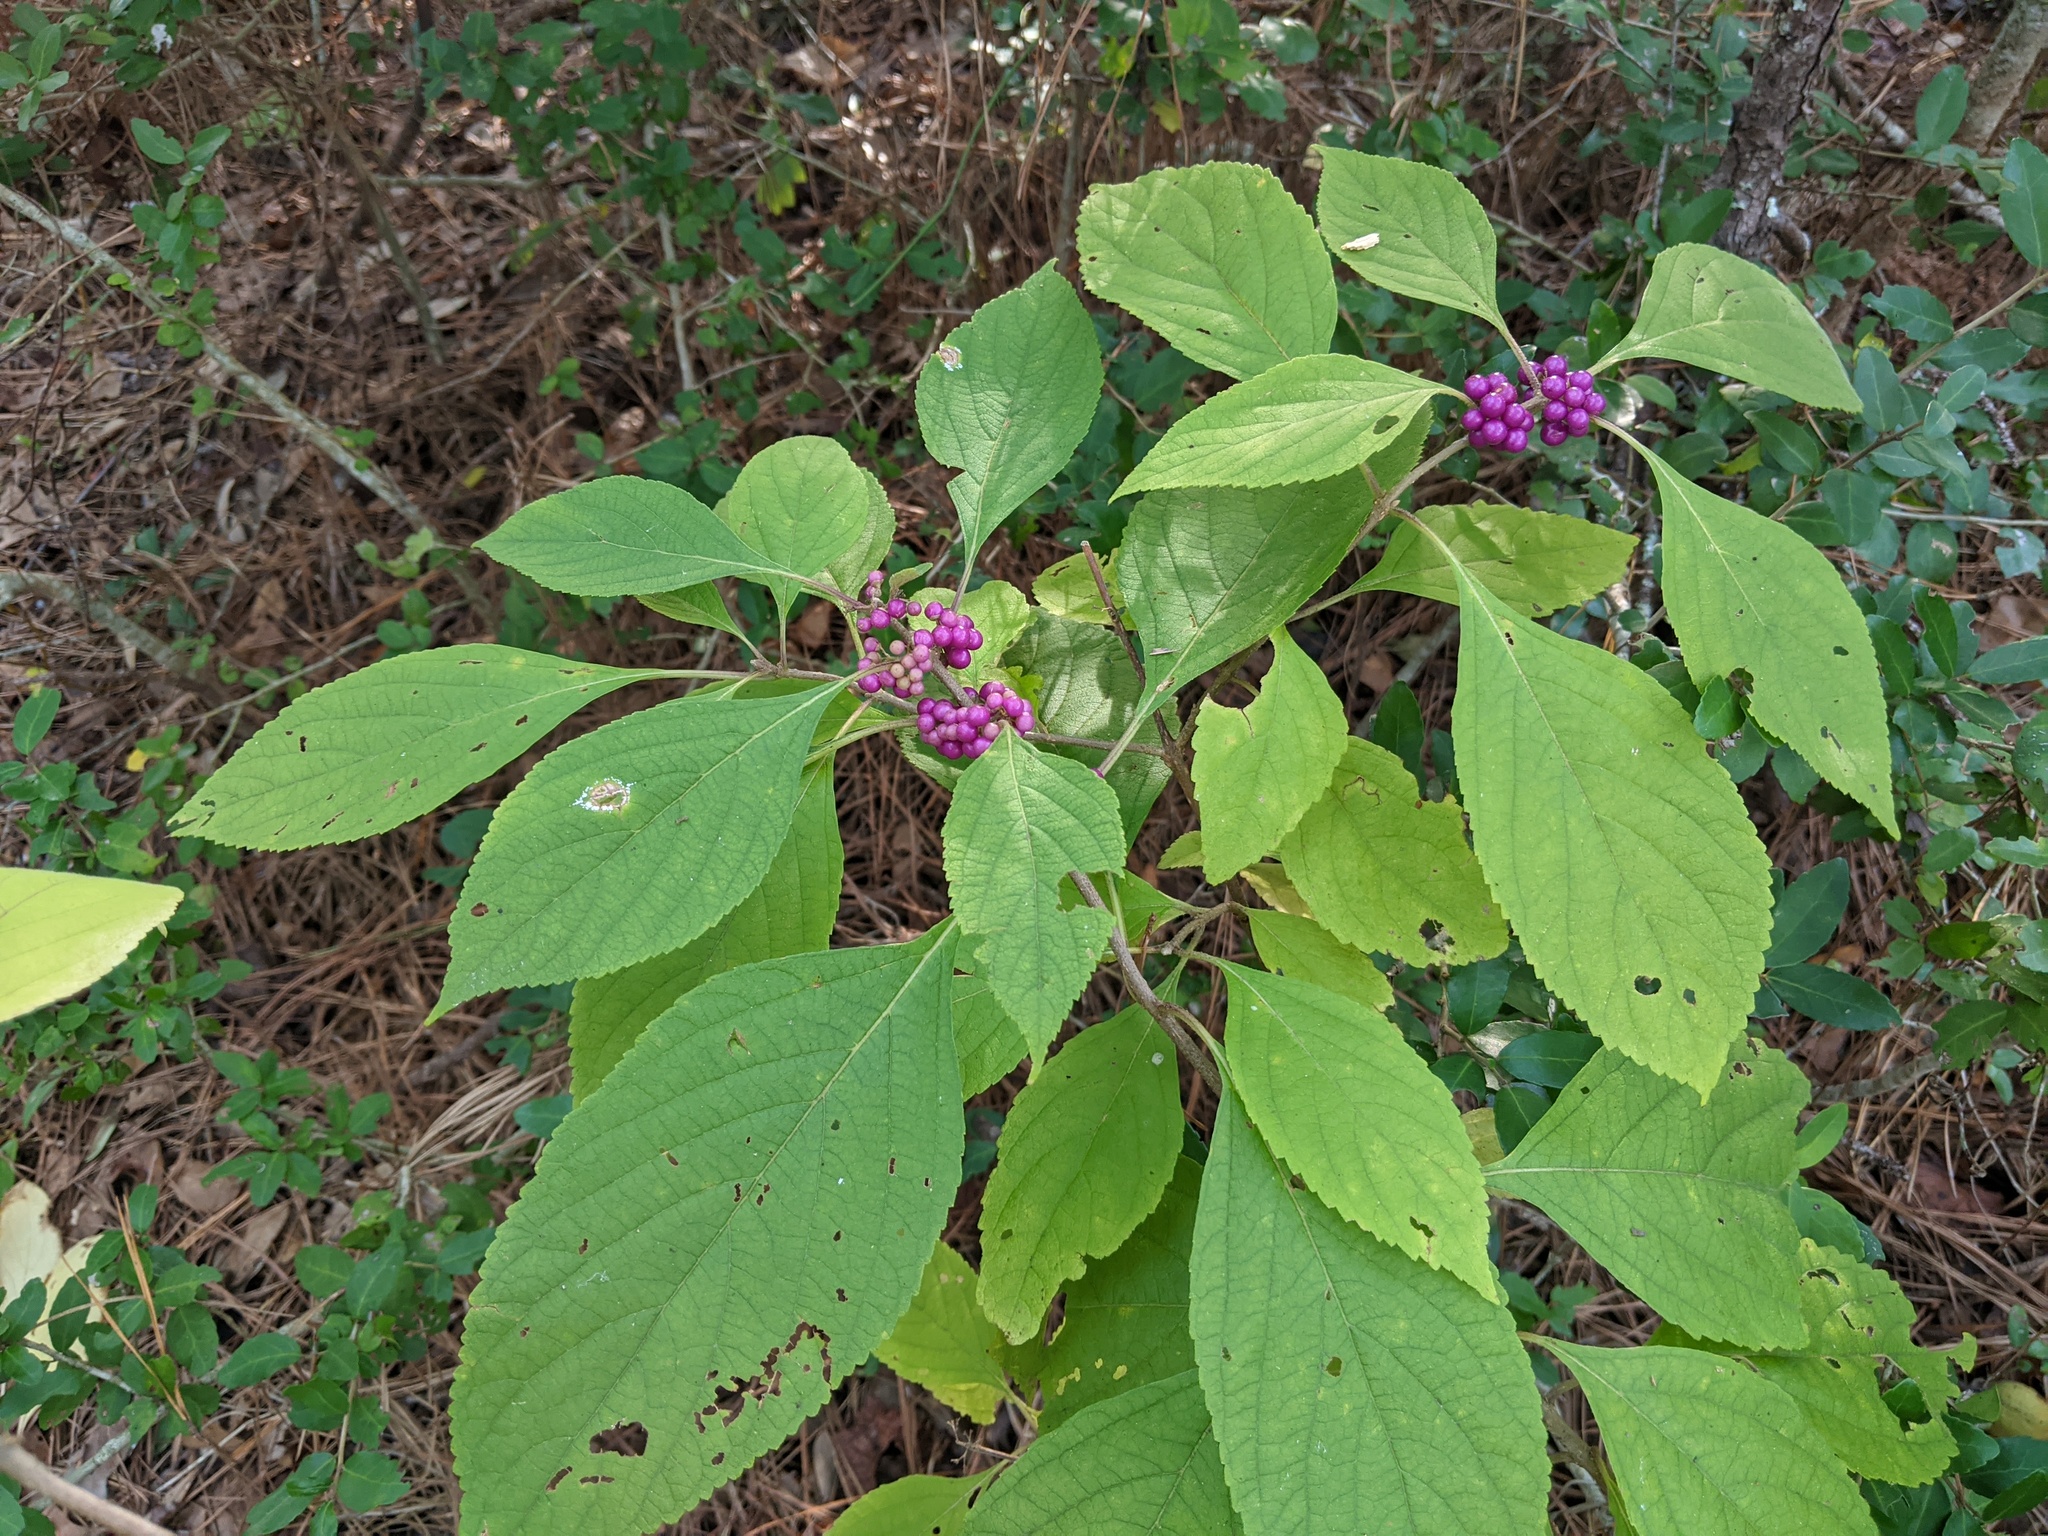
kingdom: Plantae
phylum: Tracheophyta
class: Magnoliopsida
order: Lamiales
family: Lamiaceae
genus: Callicarpa
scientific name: Callicarpa americana
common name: American beautyberry
